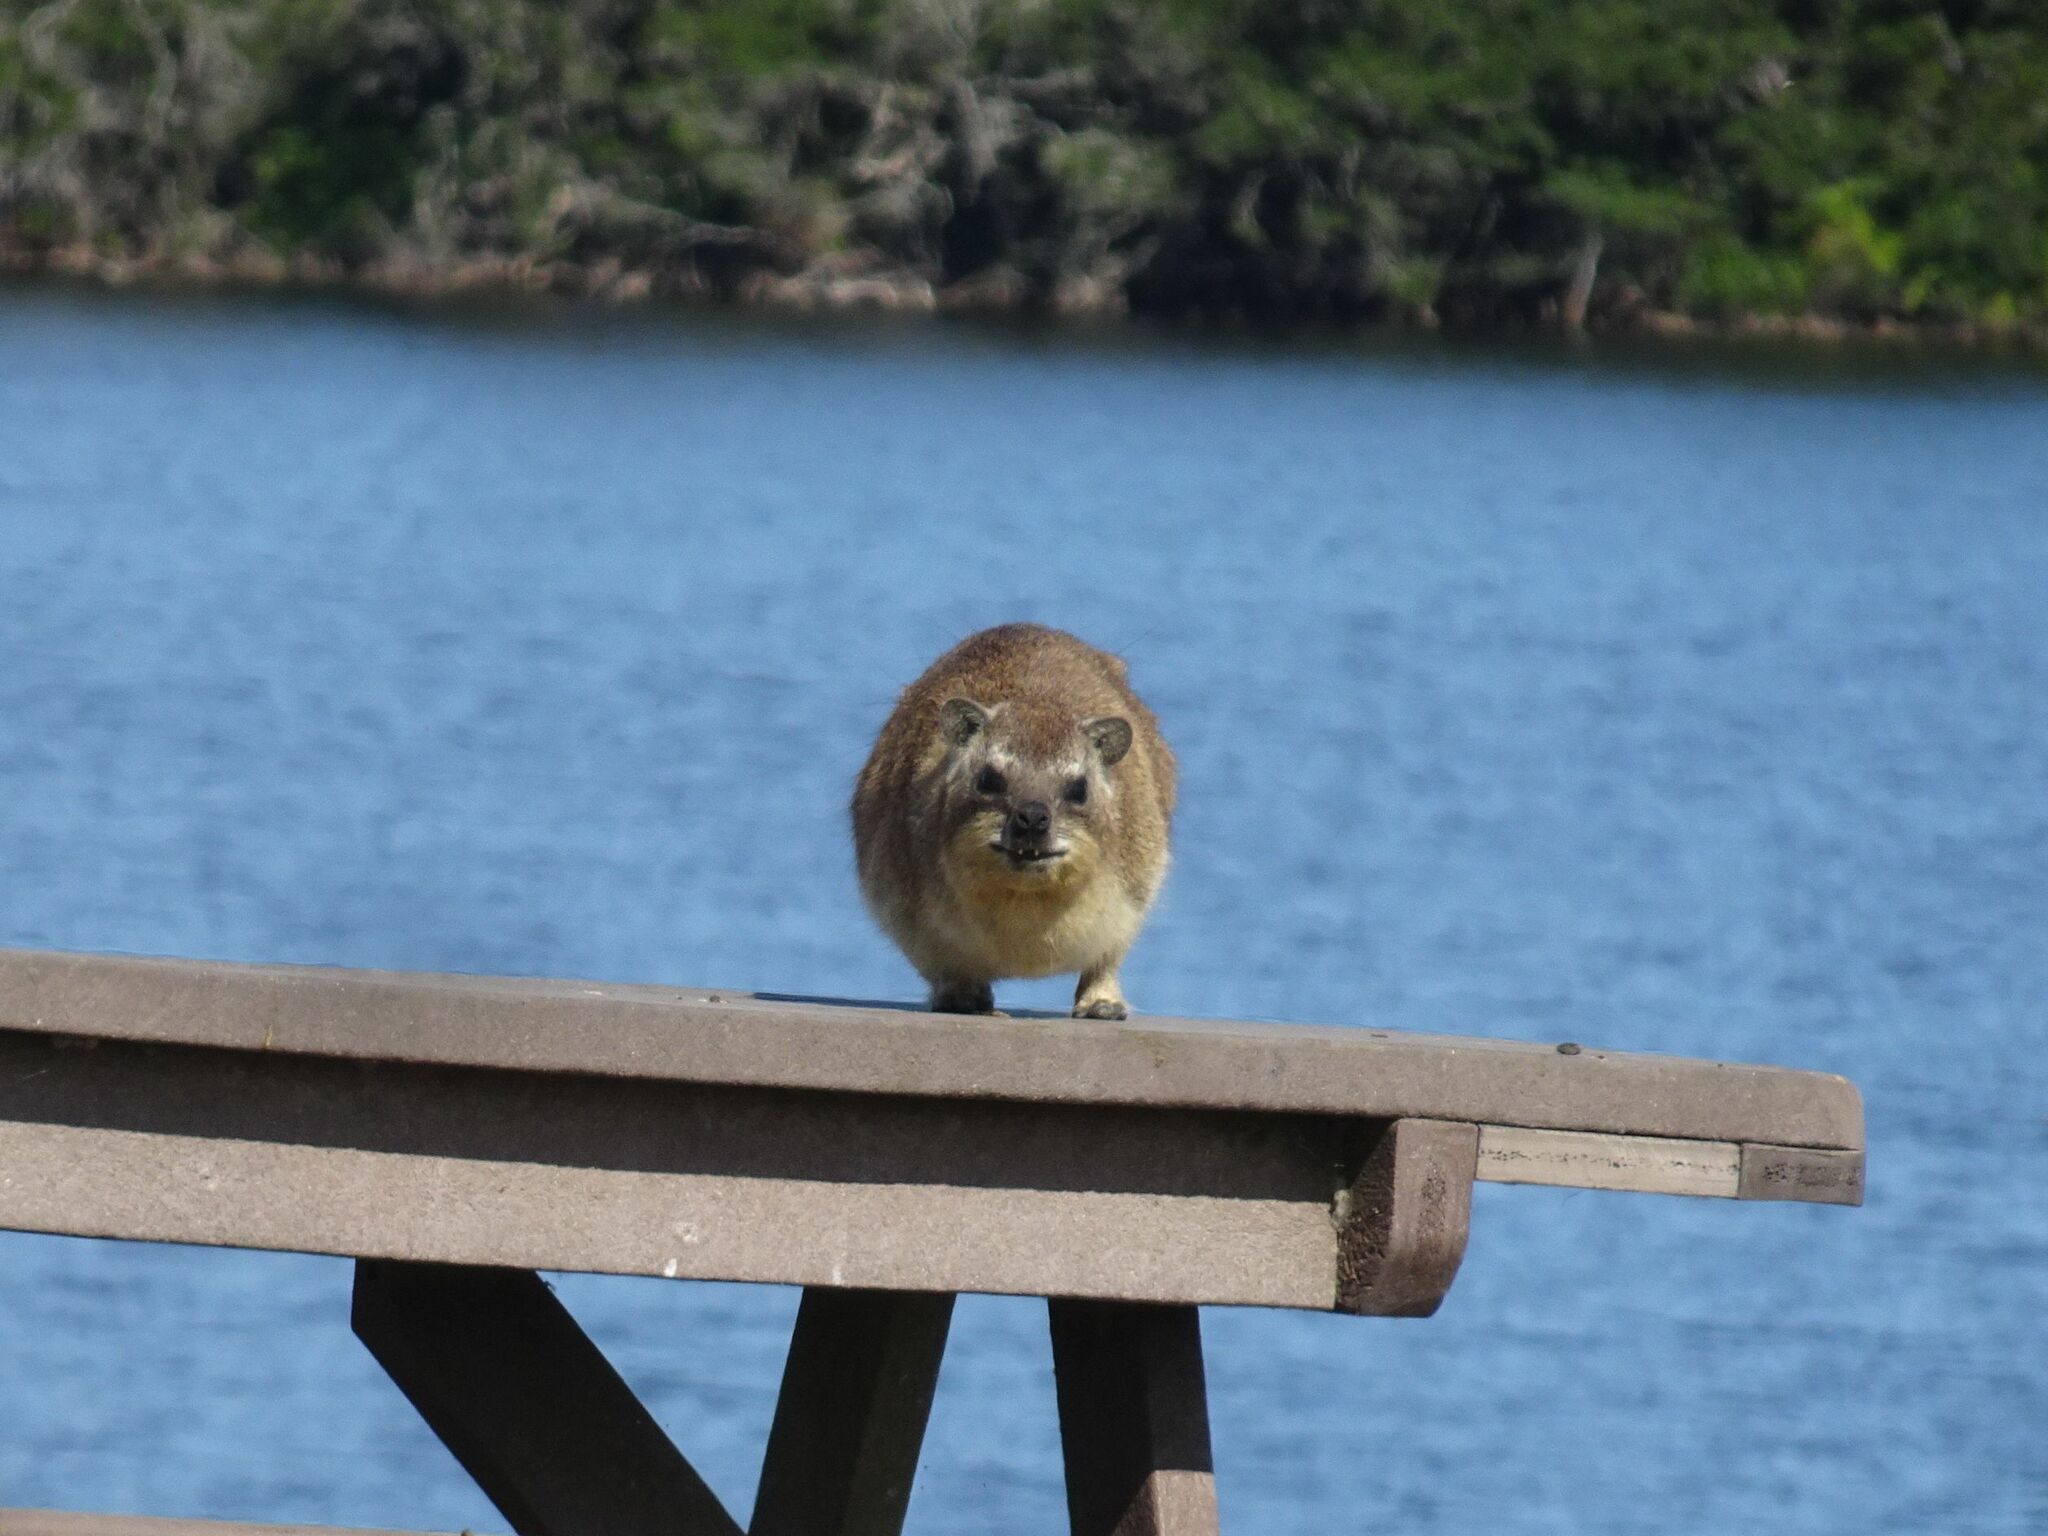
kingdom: Animalia
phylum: Chordata
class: Mammalia
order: Hyracoidea
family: Procaviidae
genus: Procavia
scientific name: Procavia capensis
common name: Rock hyrax
